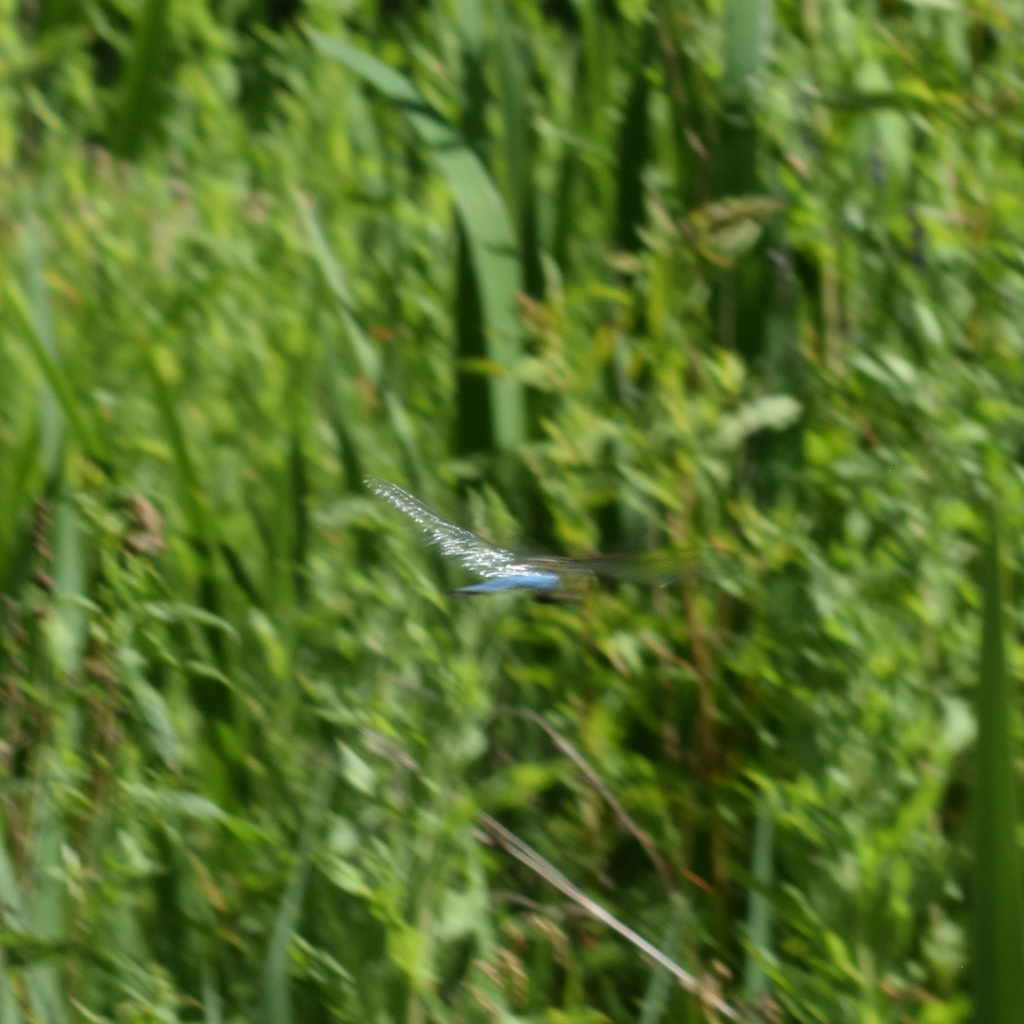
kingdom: Animalia
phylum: Arthropoda
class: Insecta
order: Odonata
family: Aeshnidae
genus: Anax
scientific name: Anax imperator
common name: Emperor dragonfly
